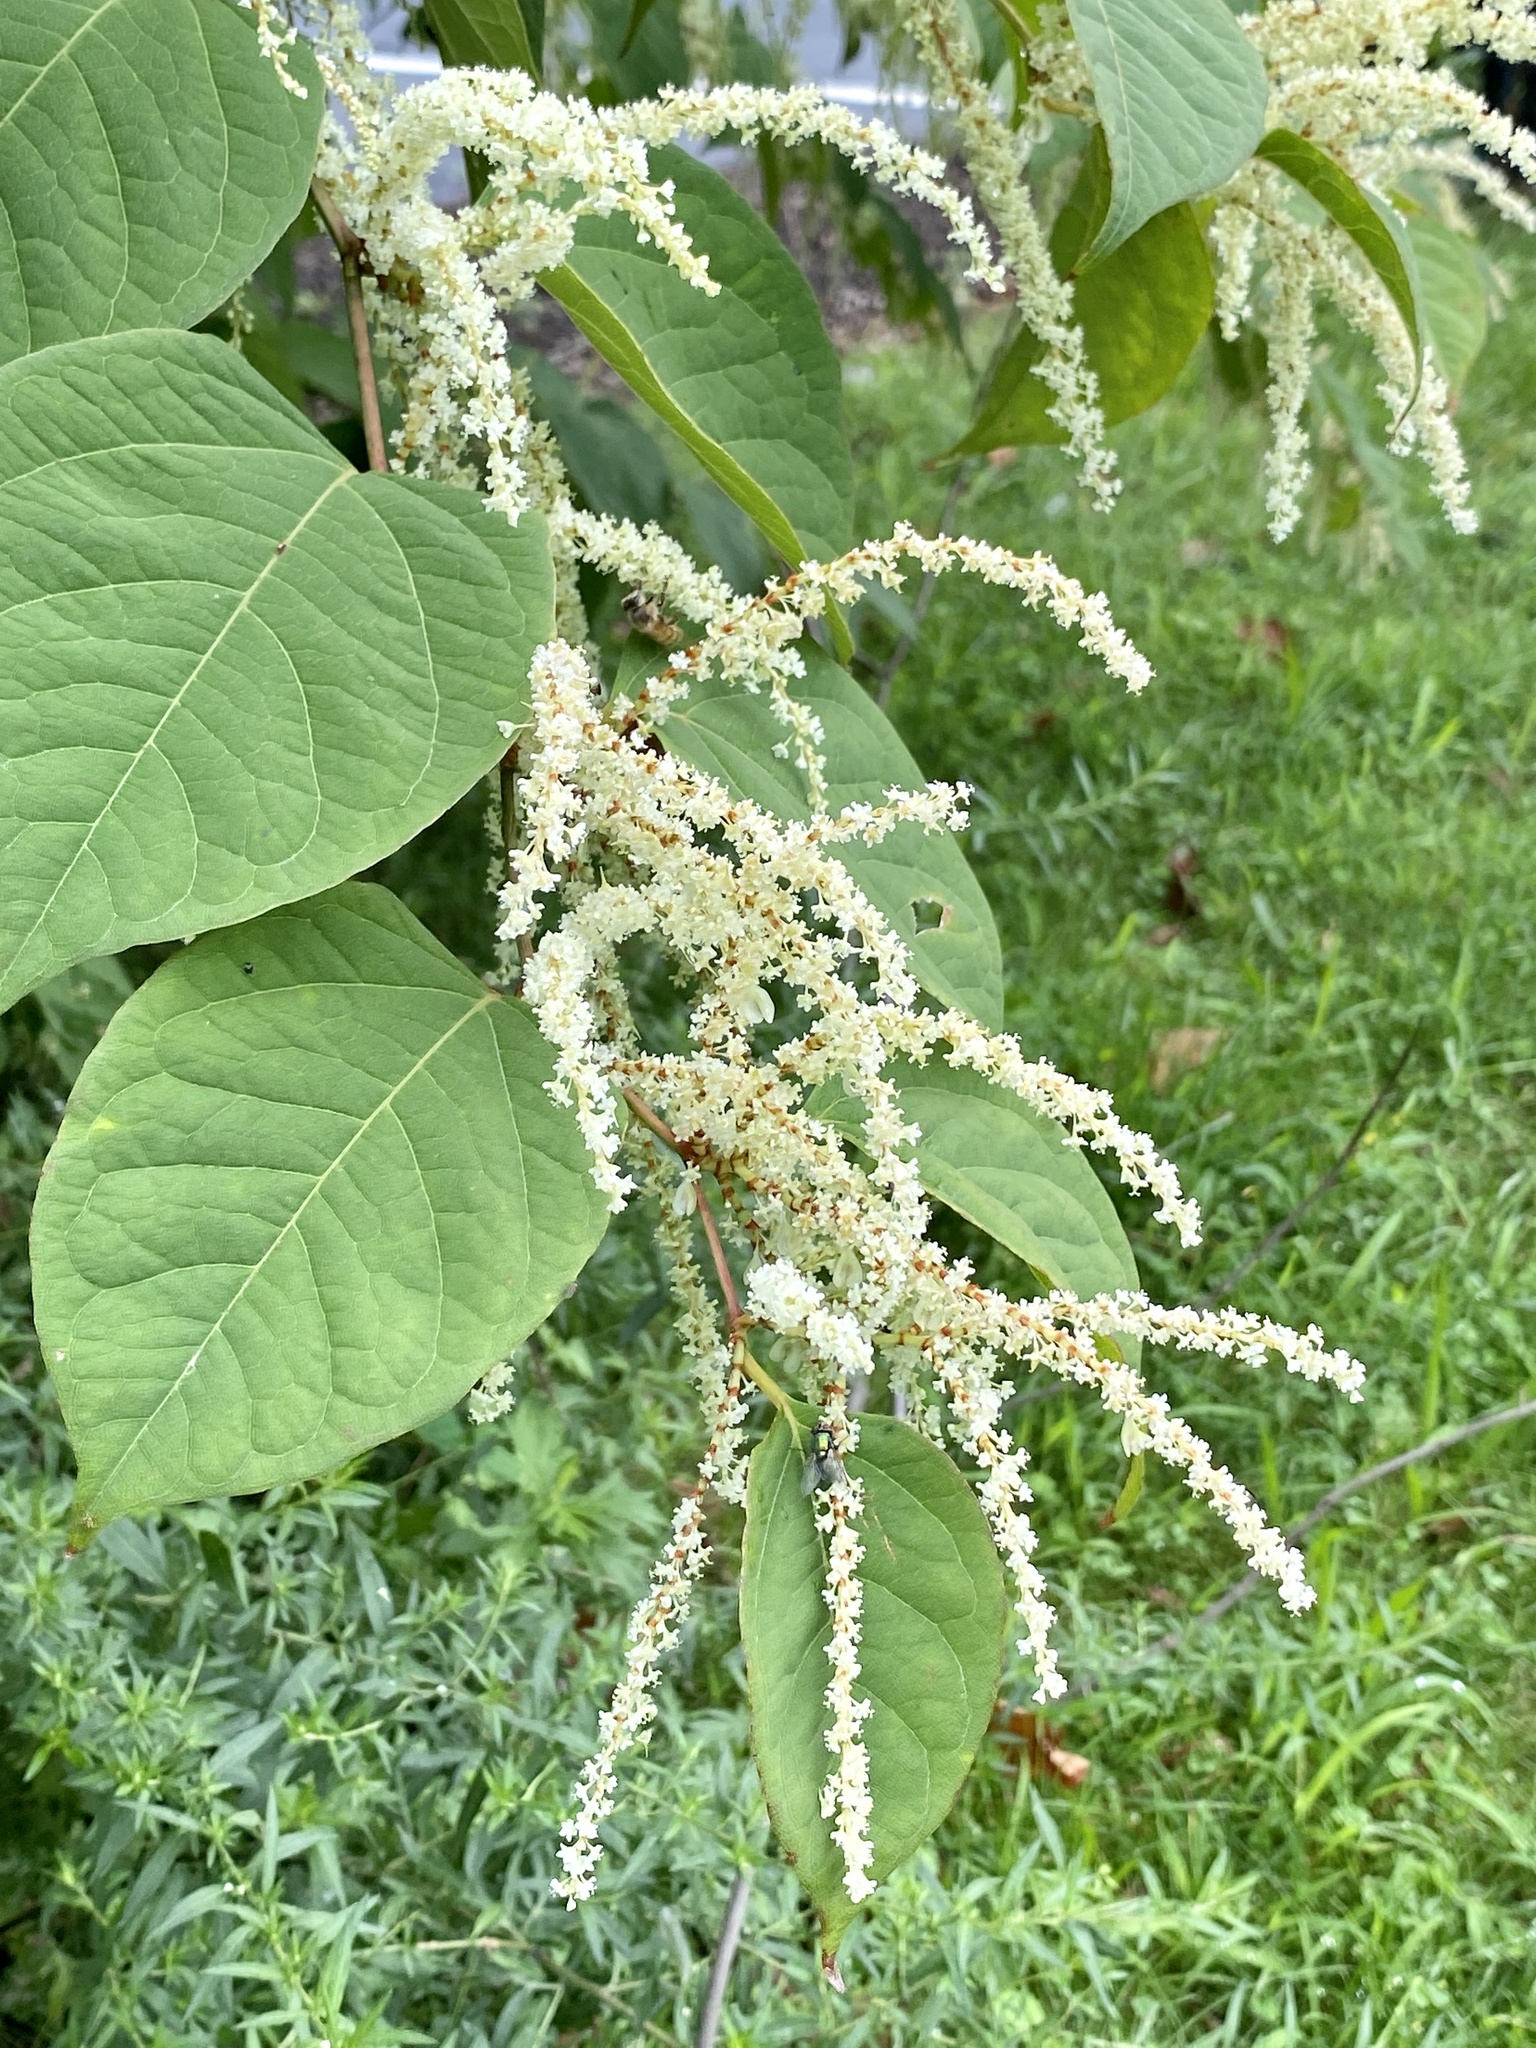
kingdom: Plantae
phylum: Tracheophyta
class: Magnoliopsida
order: Caryophyllales
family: Polygonaceae
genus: Reynoutria
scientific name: Reynoutria japonica
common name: Japanese knotweed
